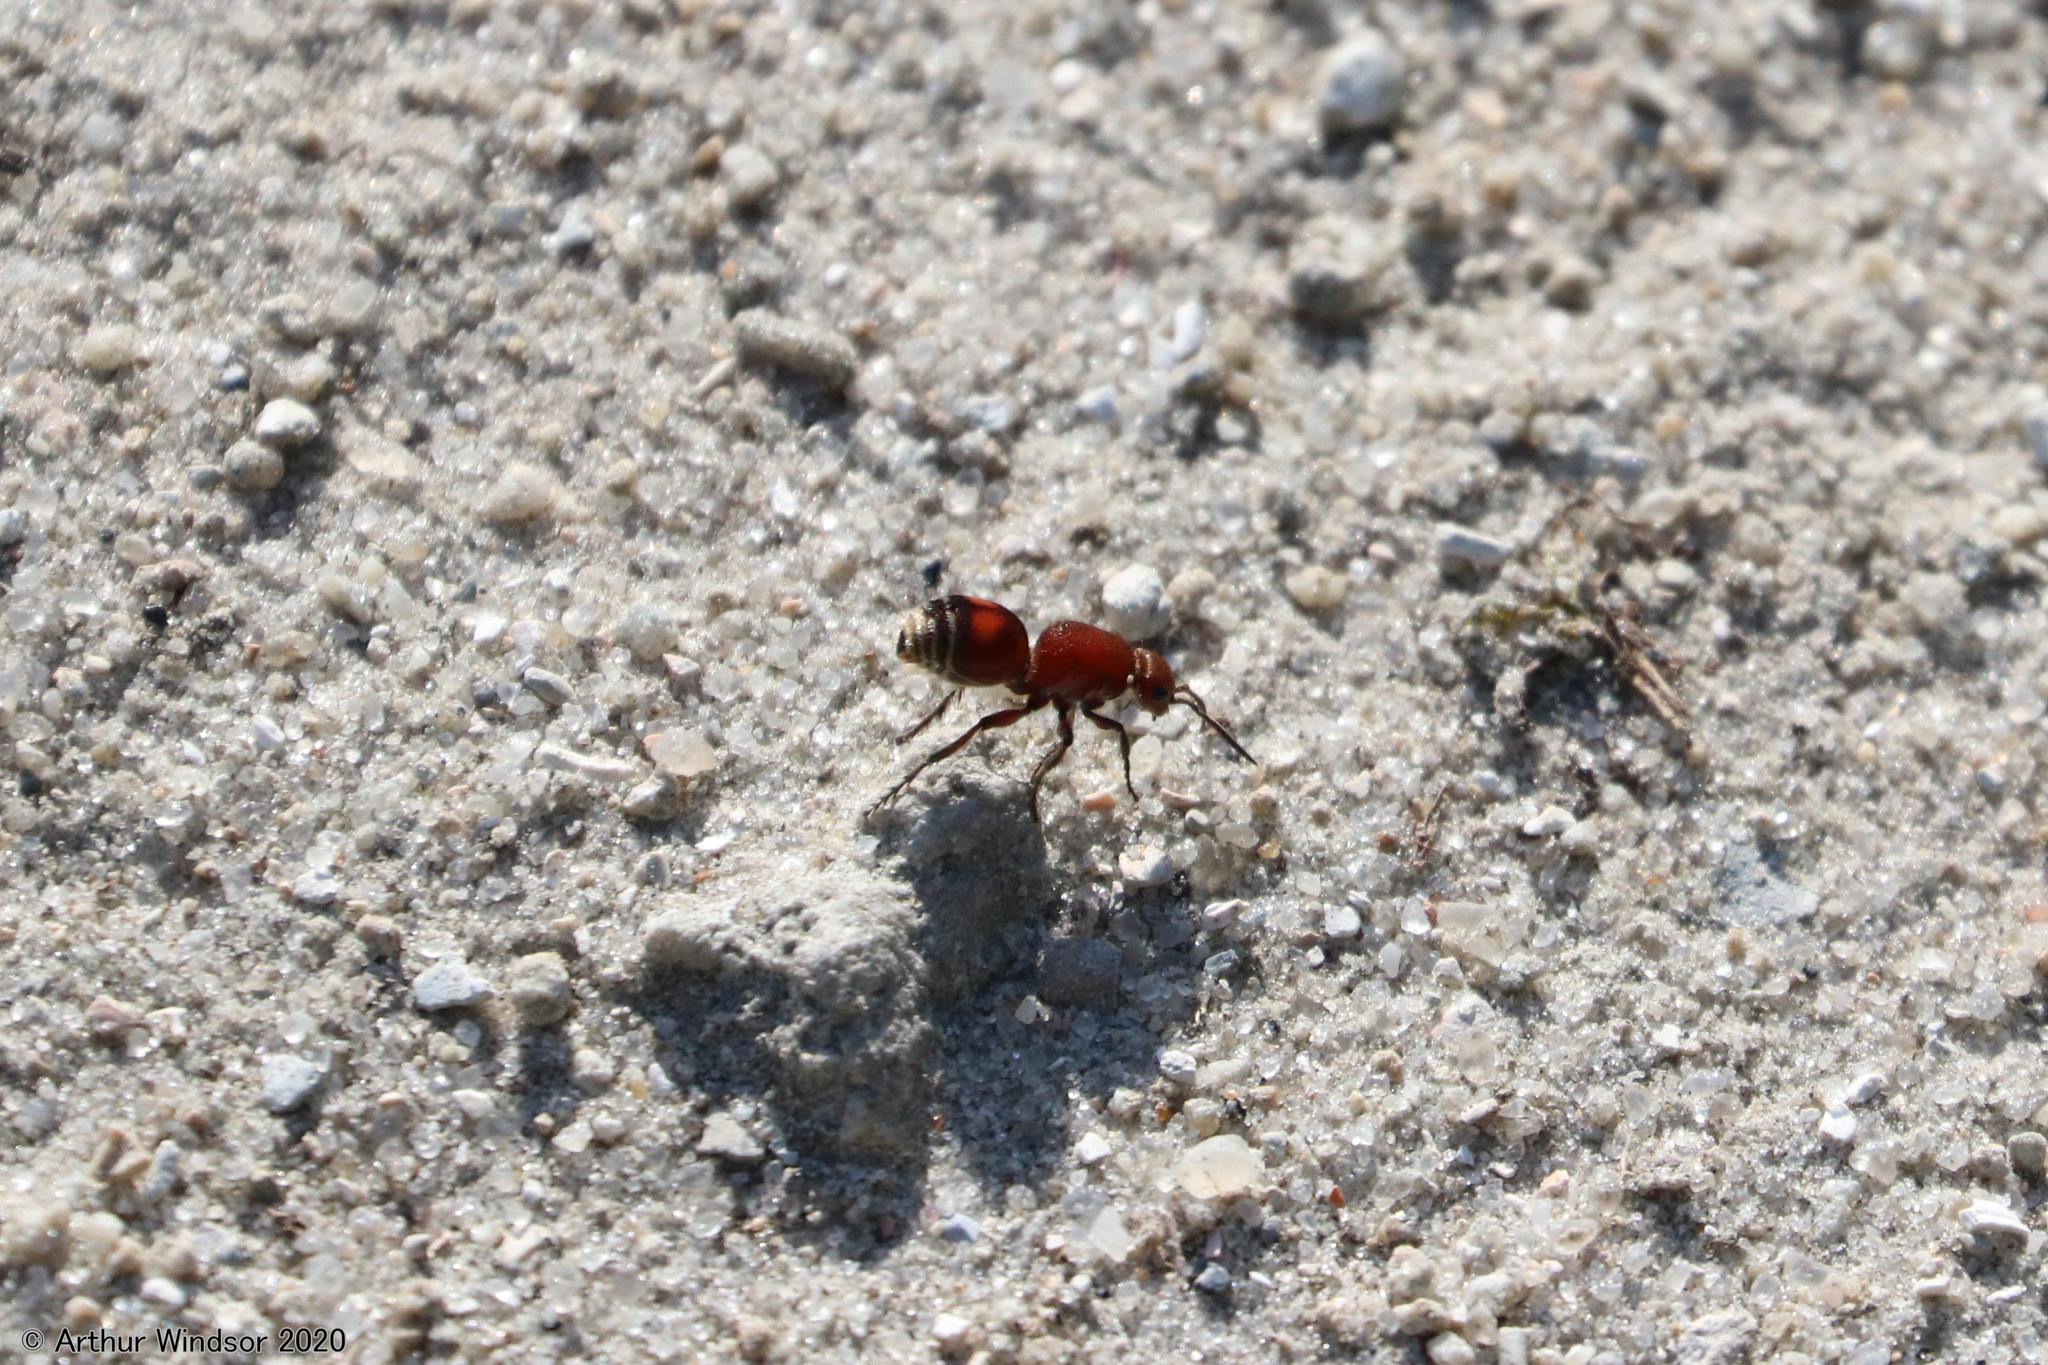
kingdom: Animalia
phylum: Arthropoda
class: Insecta
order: Hymenoptera
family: Mutillidae
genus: Dasymutilla
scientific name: Dasymutilla
